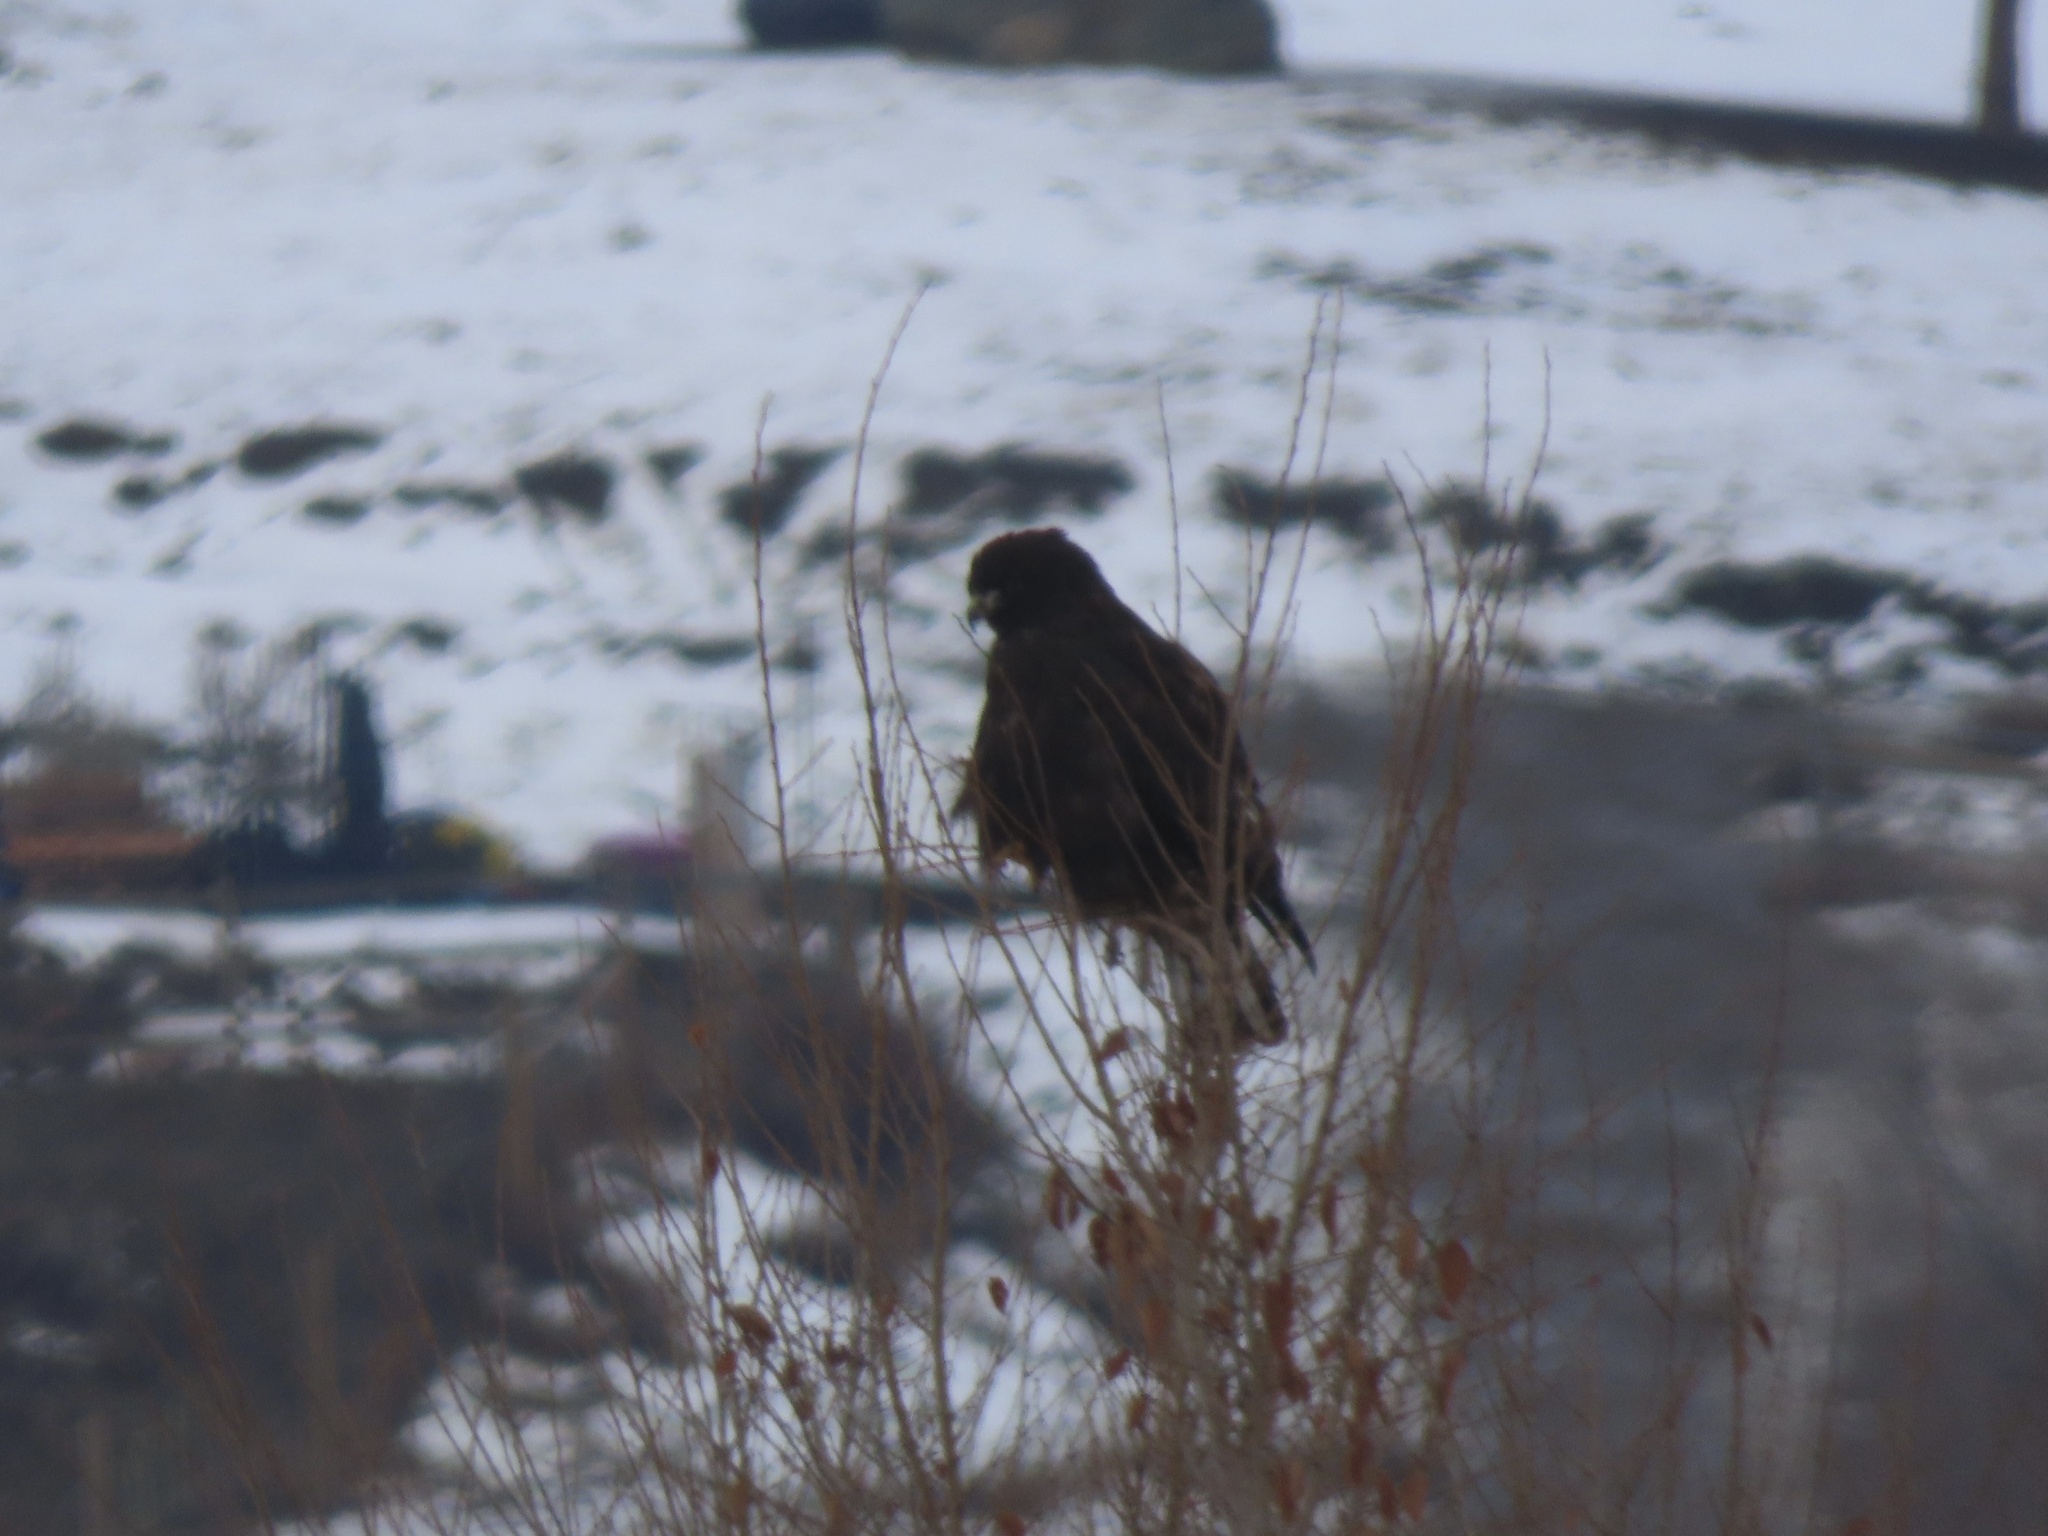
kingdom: Animalia
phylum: Chordata
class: Aves
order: Accipitriformes
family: Accipitridae
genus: Buteo
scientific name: Buteo lagopus
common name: Rough-legged buzzard
